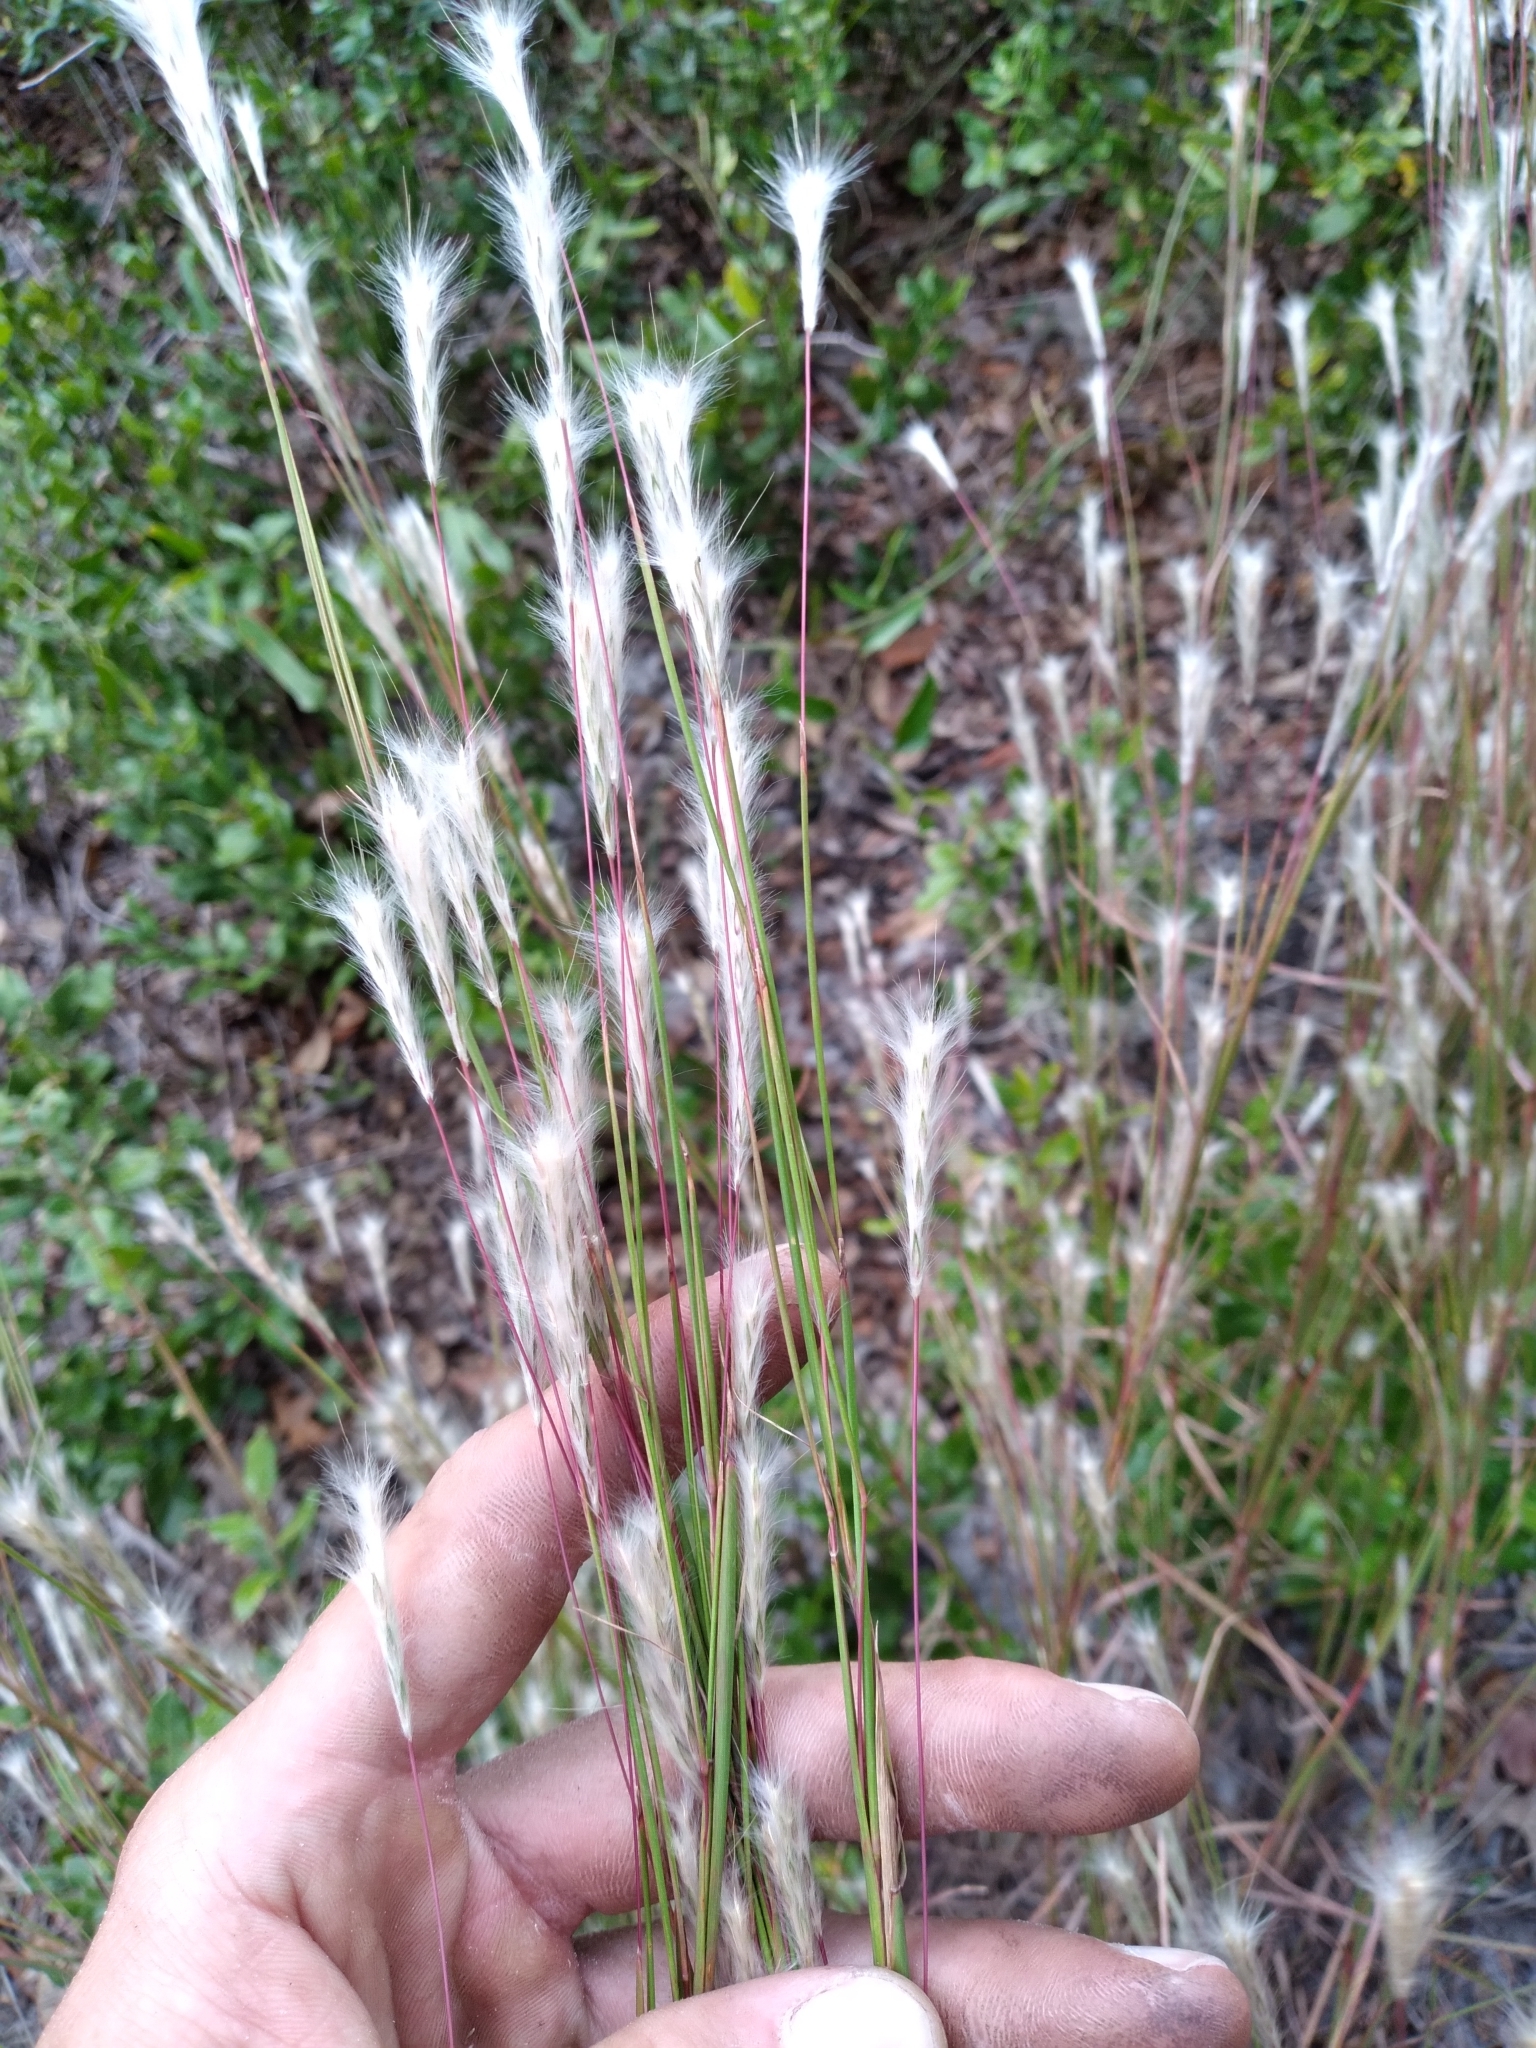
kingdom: Plantae
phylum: Tracheophyta
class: Liliopsida
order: Poales
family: Poaceae
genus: Andropogon
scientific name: Andropogon cabanisii
